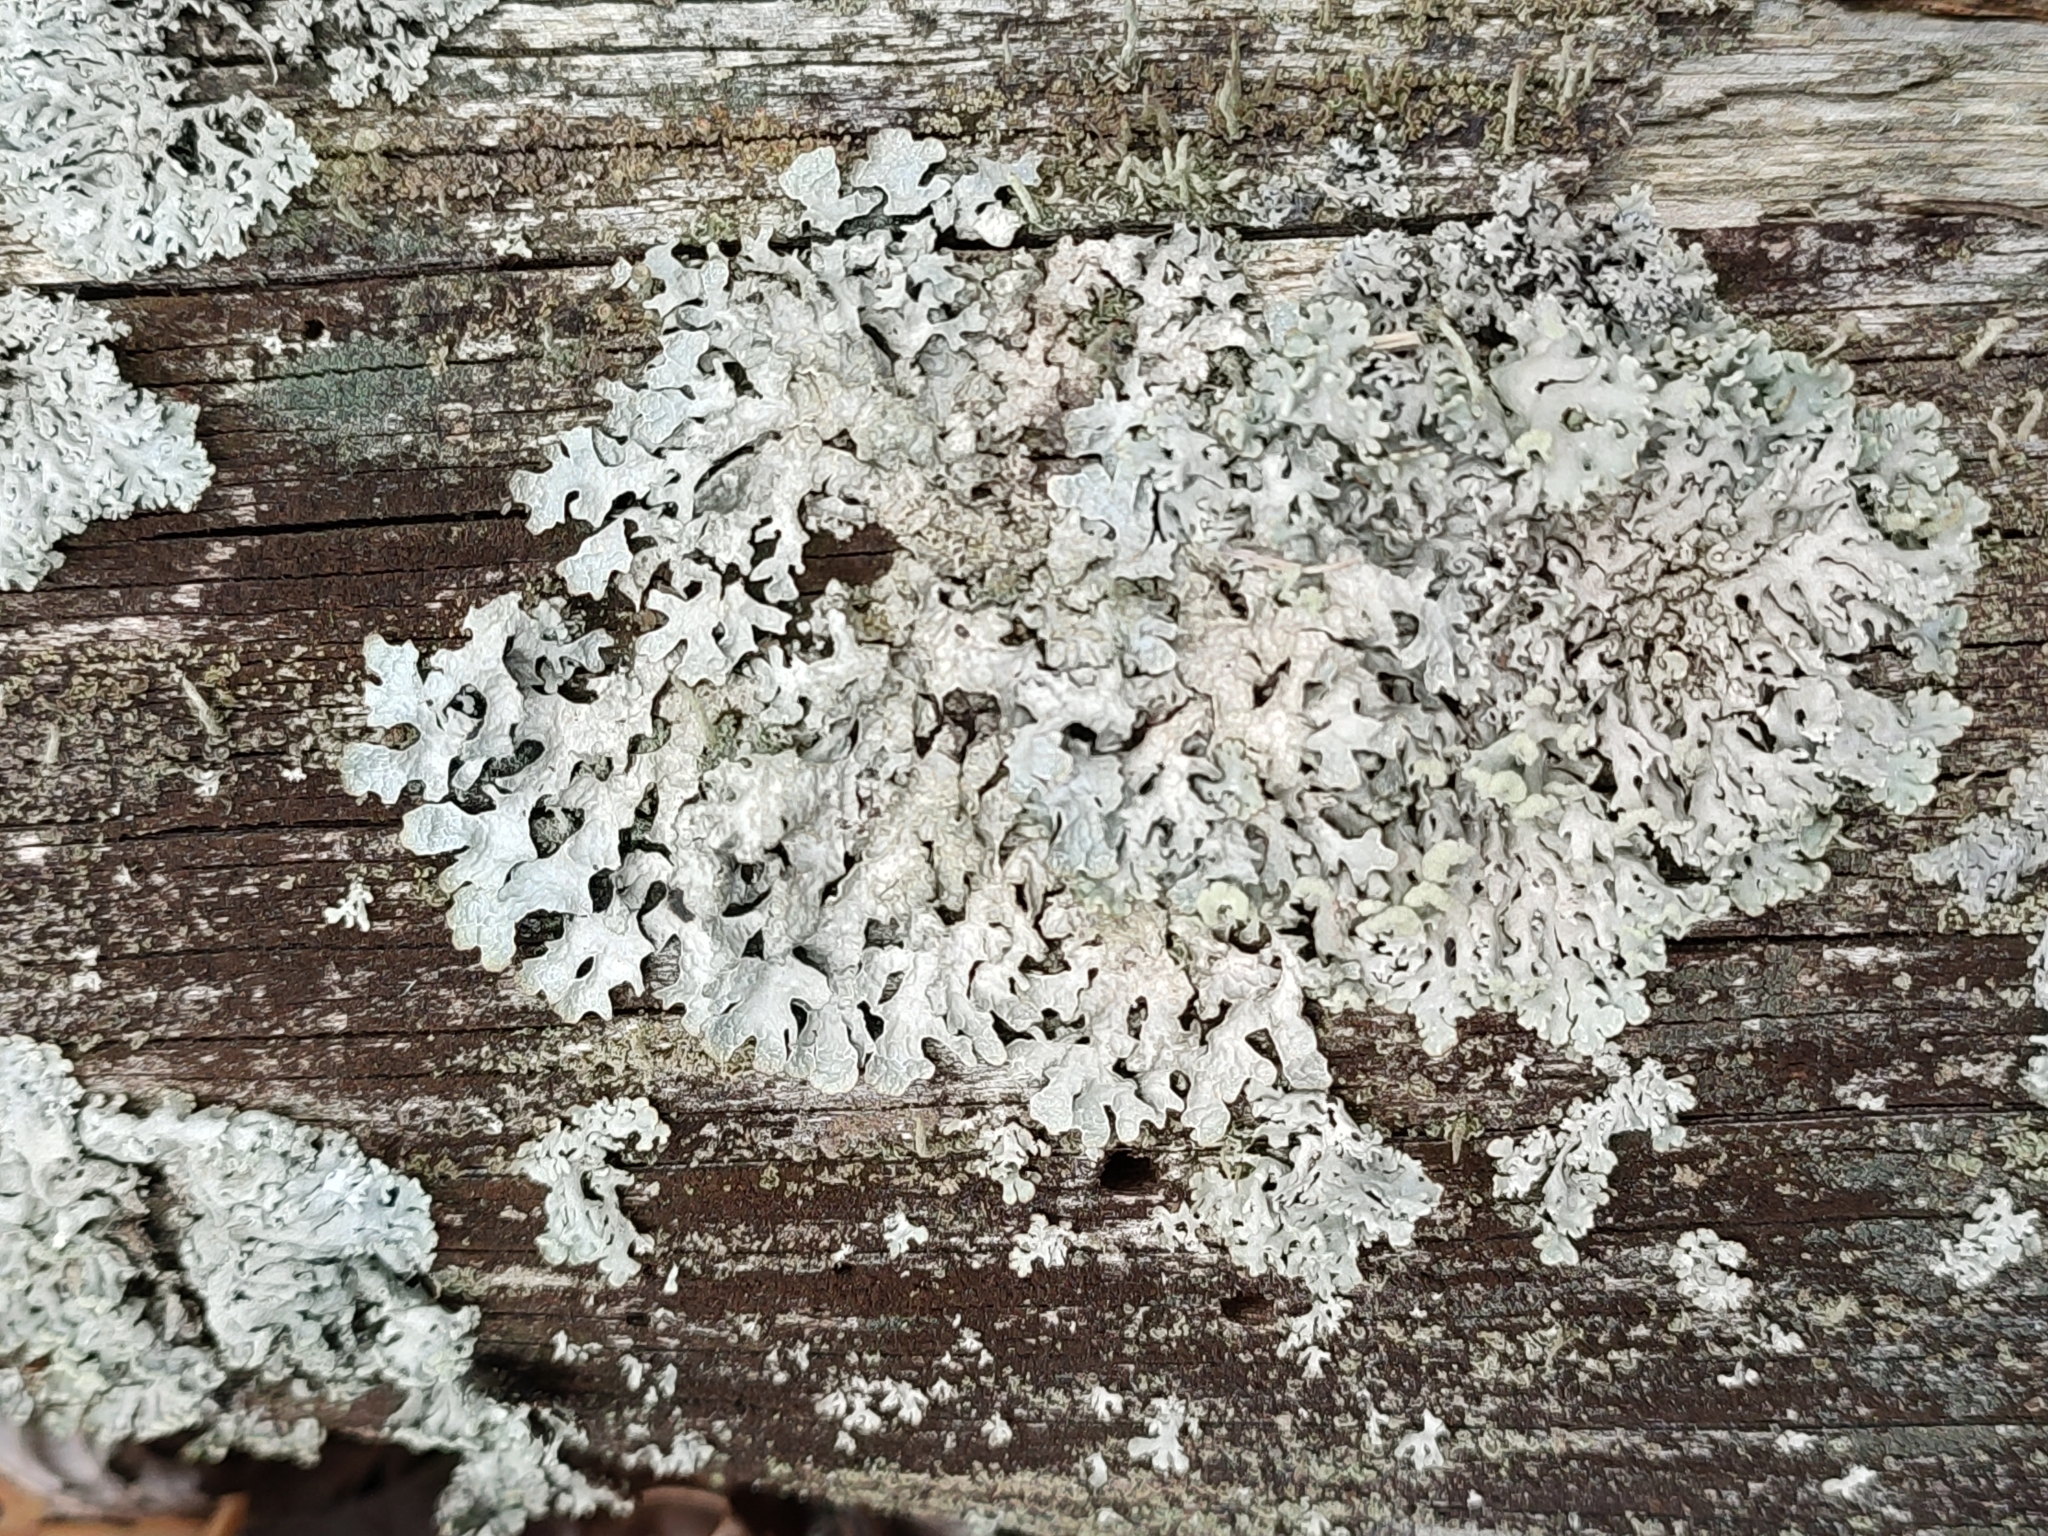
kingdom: Fungi
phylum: Ascomycota
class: Lecanoromycetes
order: Lecanorales
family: Parmeliaceae
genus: Parmelia
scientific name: Parmelia sulcata
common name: Netted shield lichen
